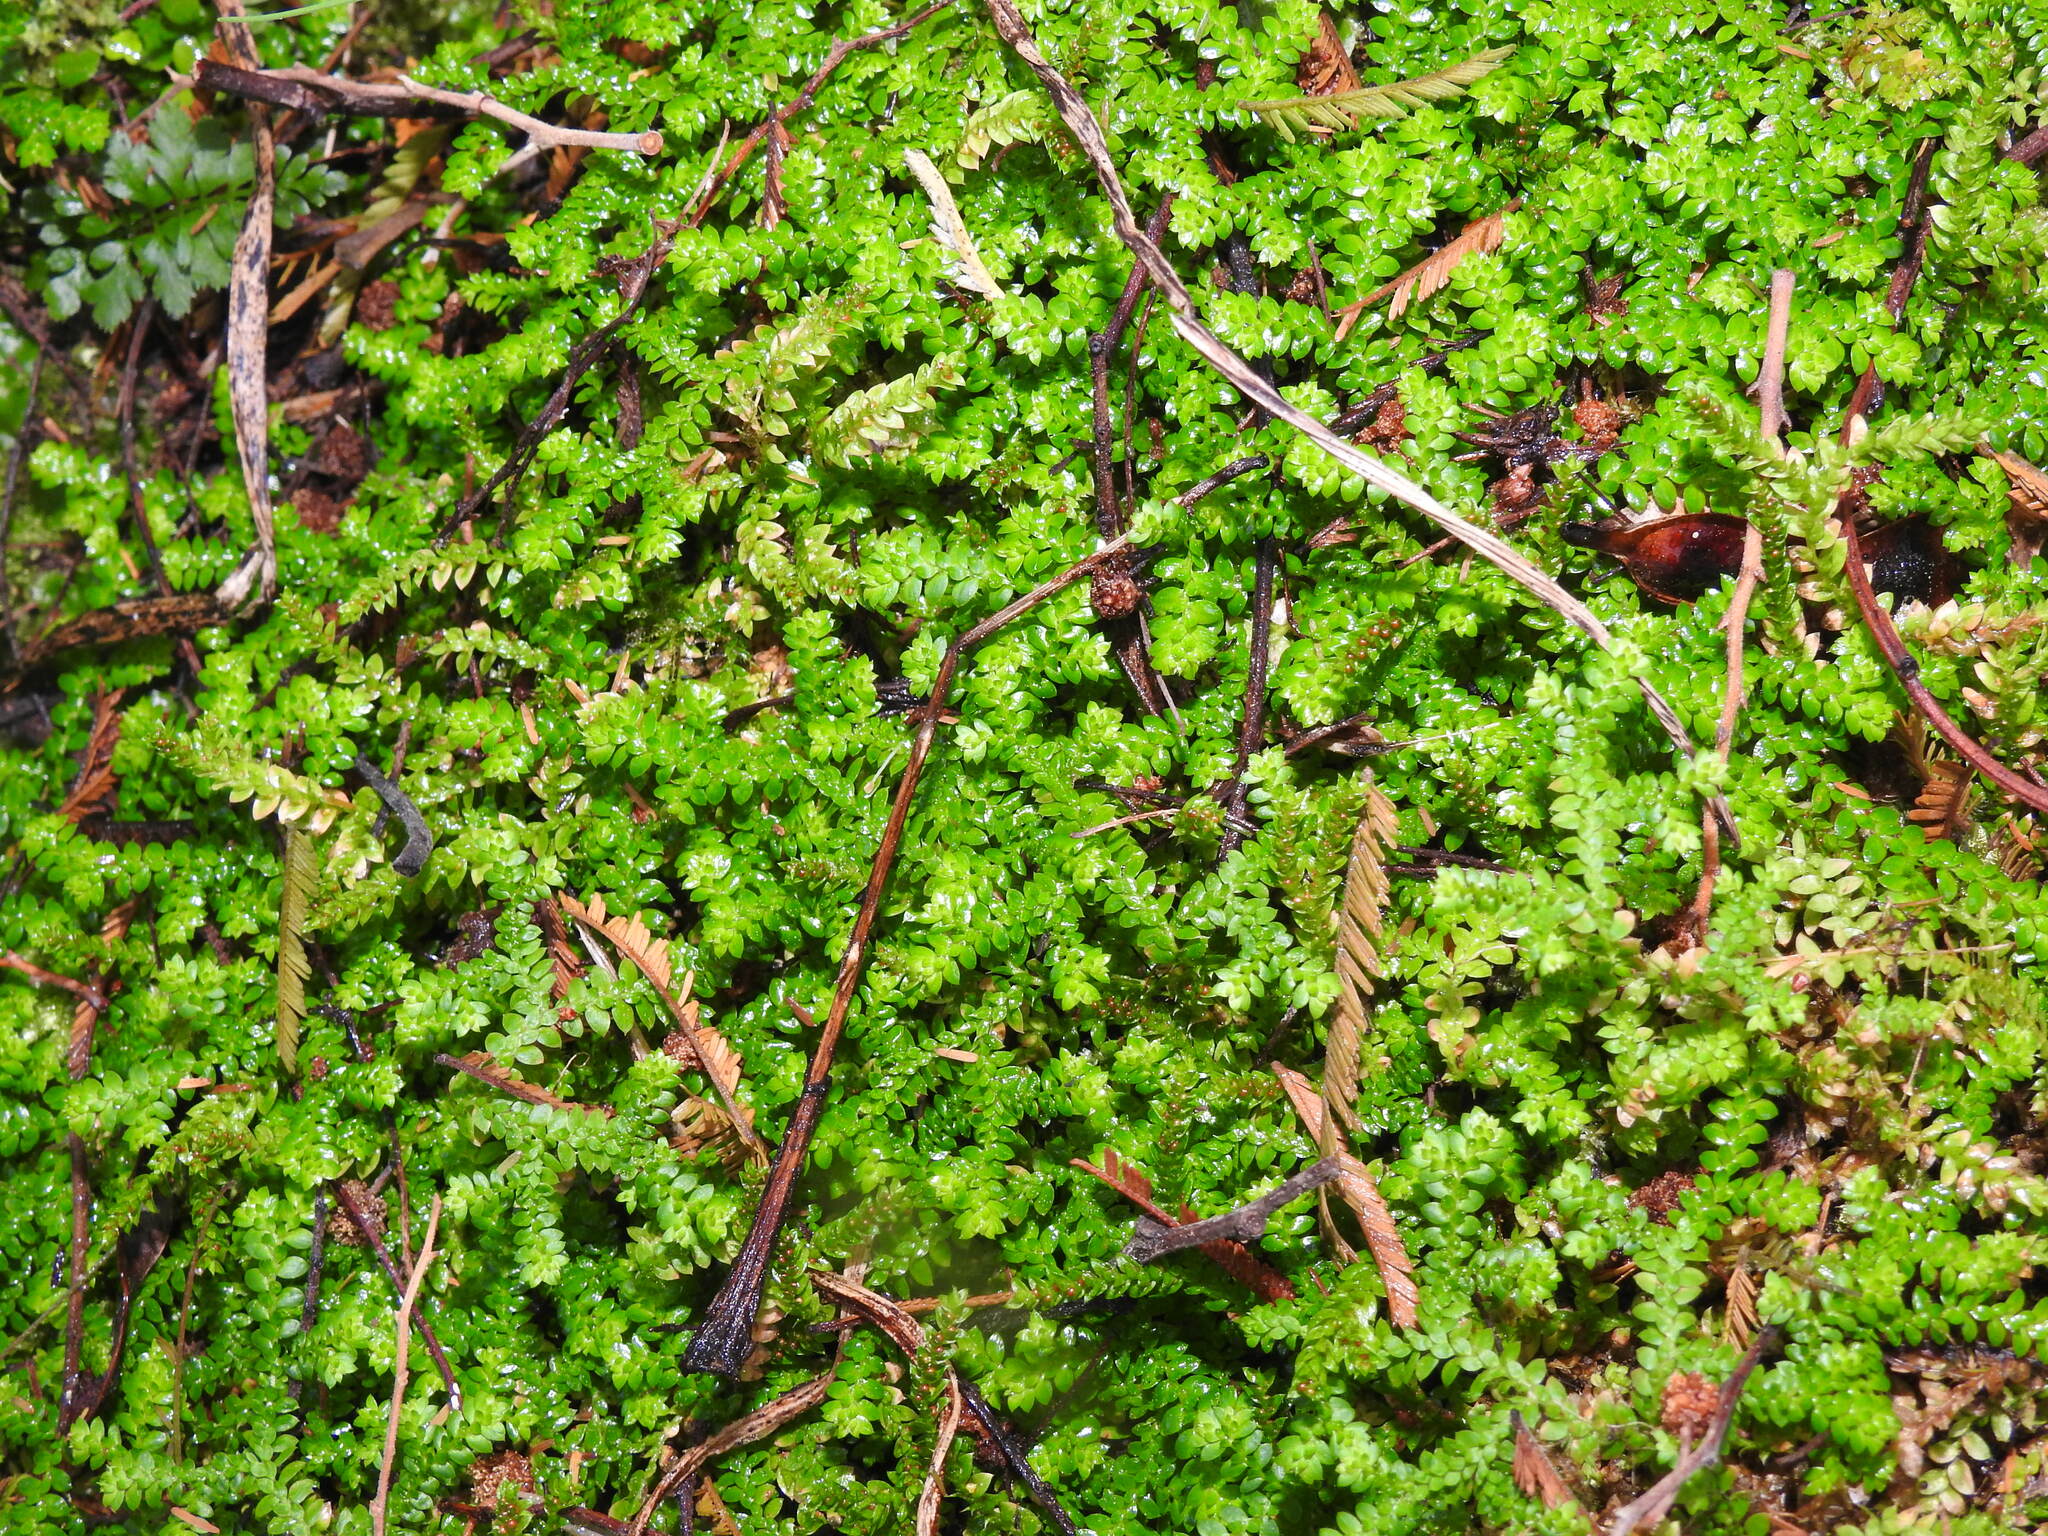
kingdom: Plantae
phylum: Tracheophyta
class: Lycopodiopsida
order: Selaginellales
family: Selaginellaceae
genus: Selaginella
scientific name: Selaginella denticulata
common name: Toothed-leaved clubmoss
